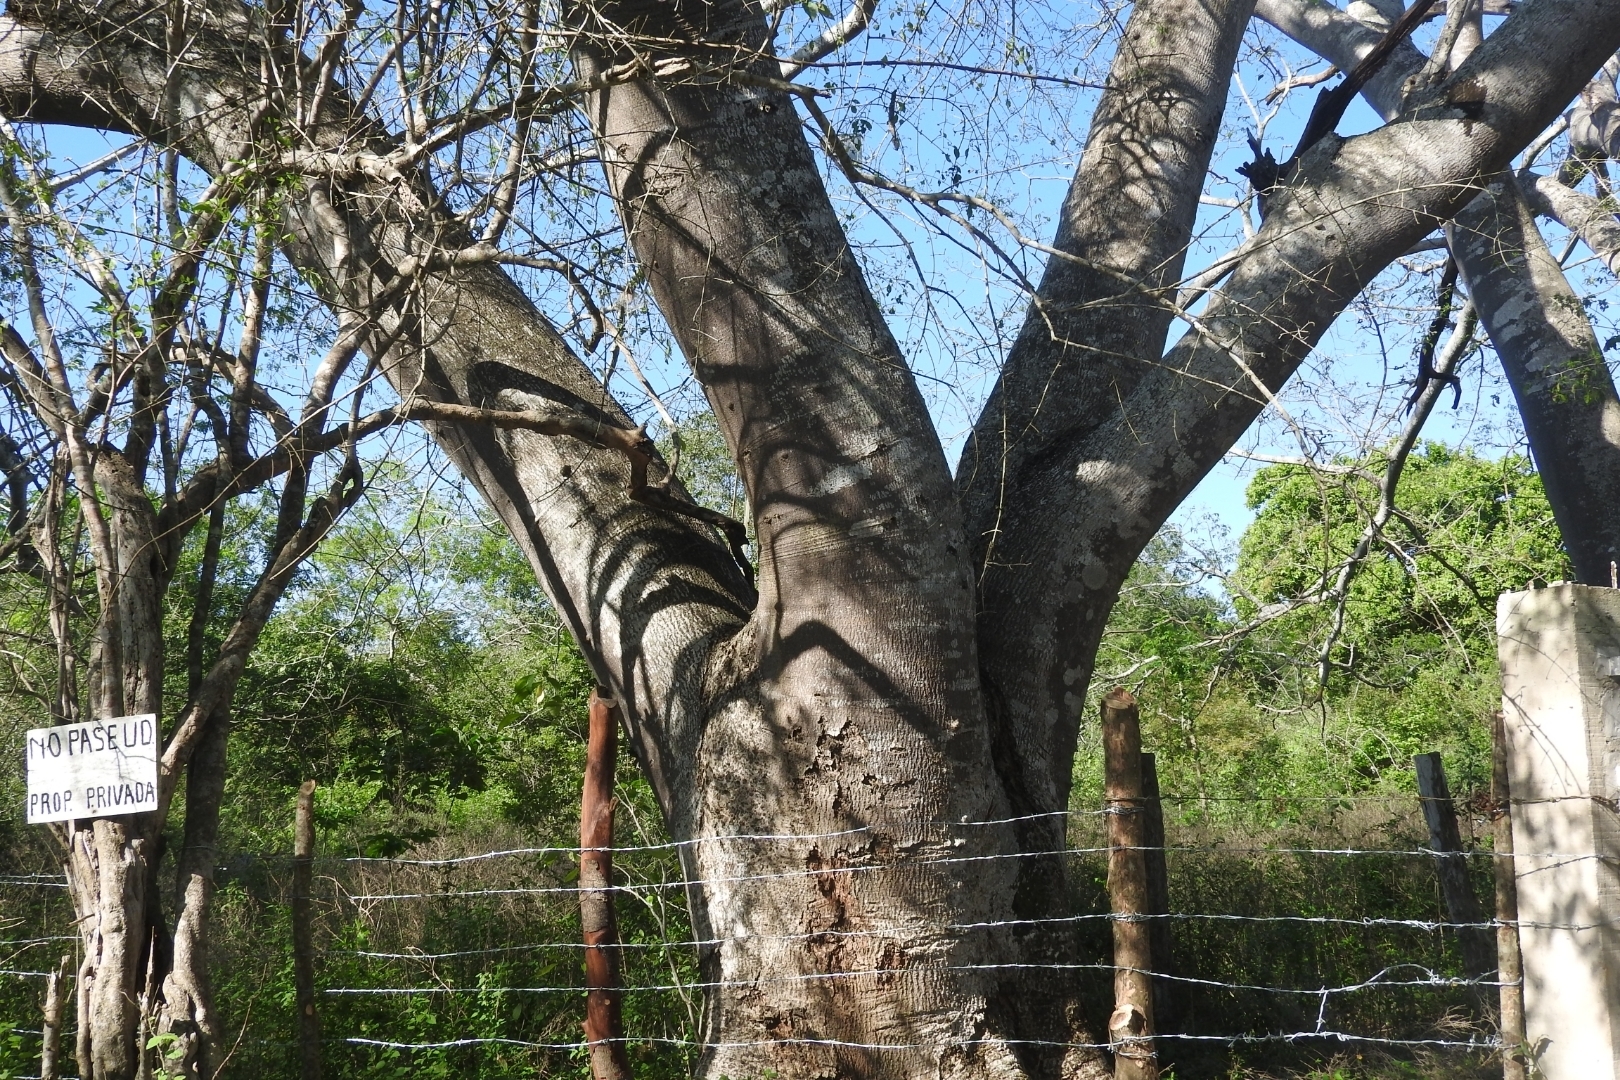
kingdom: Plantae
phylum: Tracheophyta
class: Magnoliopsida
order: Fabales
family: Fabaceae
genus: Enterolobium
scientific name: Enterolobium cyclocarpum
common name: Ear tree
